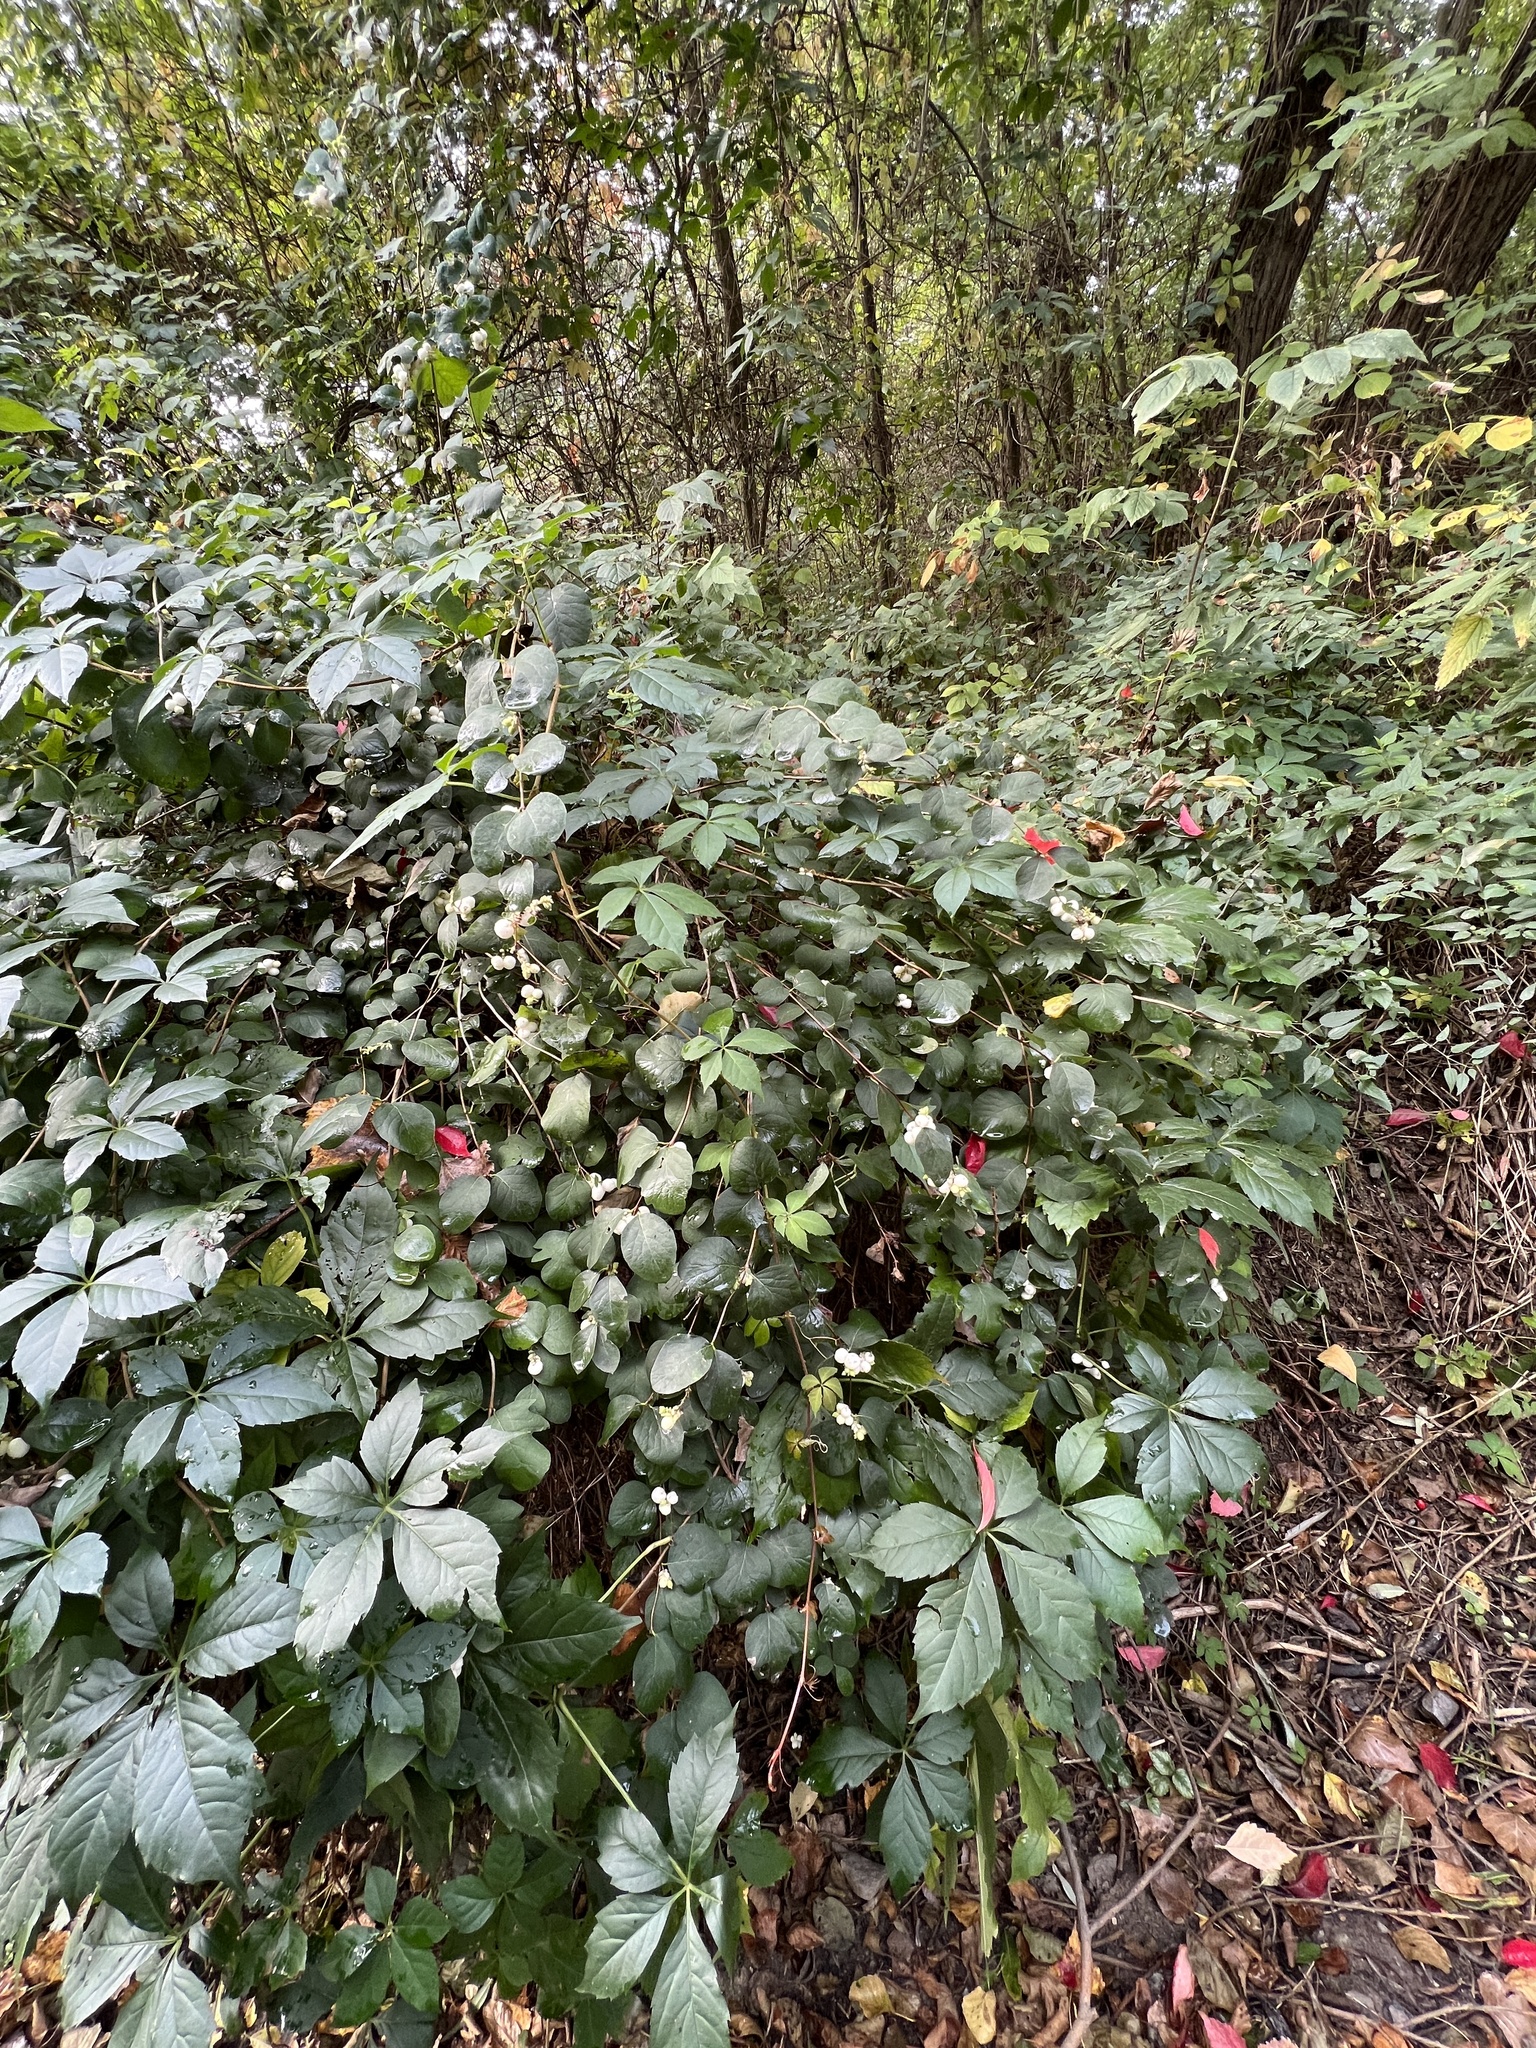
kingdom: Plantae
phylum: Tracheophyta
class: Magnoliopsida
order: Dipsacales
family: Caprifoliaceae
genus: Symphoricarpos
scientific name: Symphoricarpos albus
